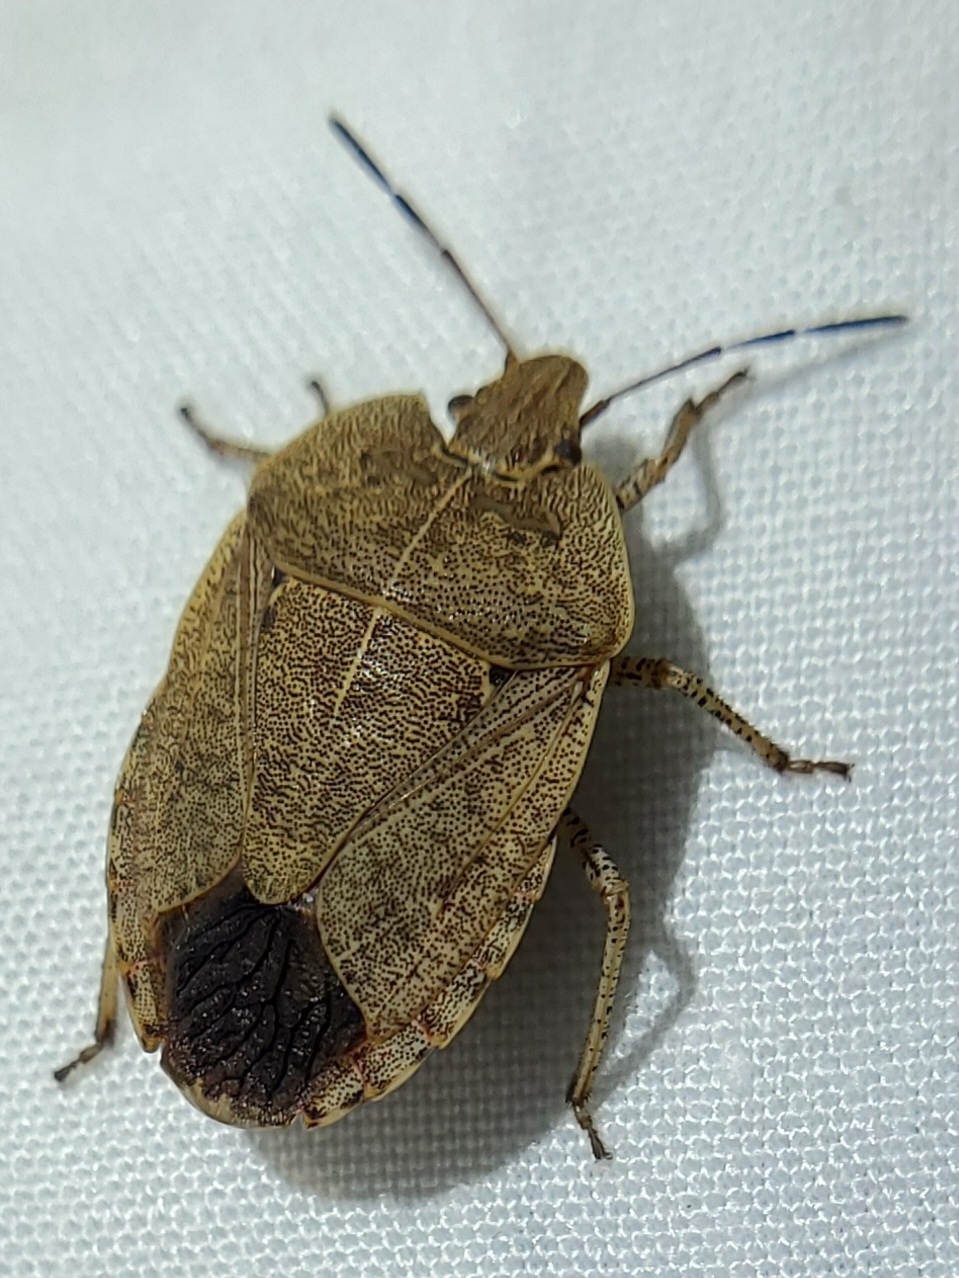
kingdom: Animalia
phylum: Arthropoda
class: Insecta
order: Hemiptera
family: Pentatomidae
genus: Menecles
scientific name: Menecles insertus
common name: Elf shoe stink bug
